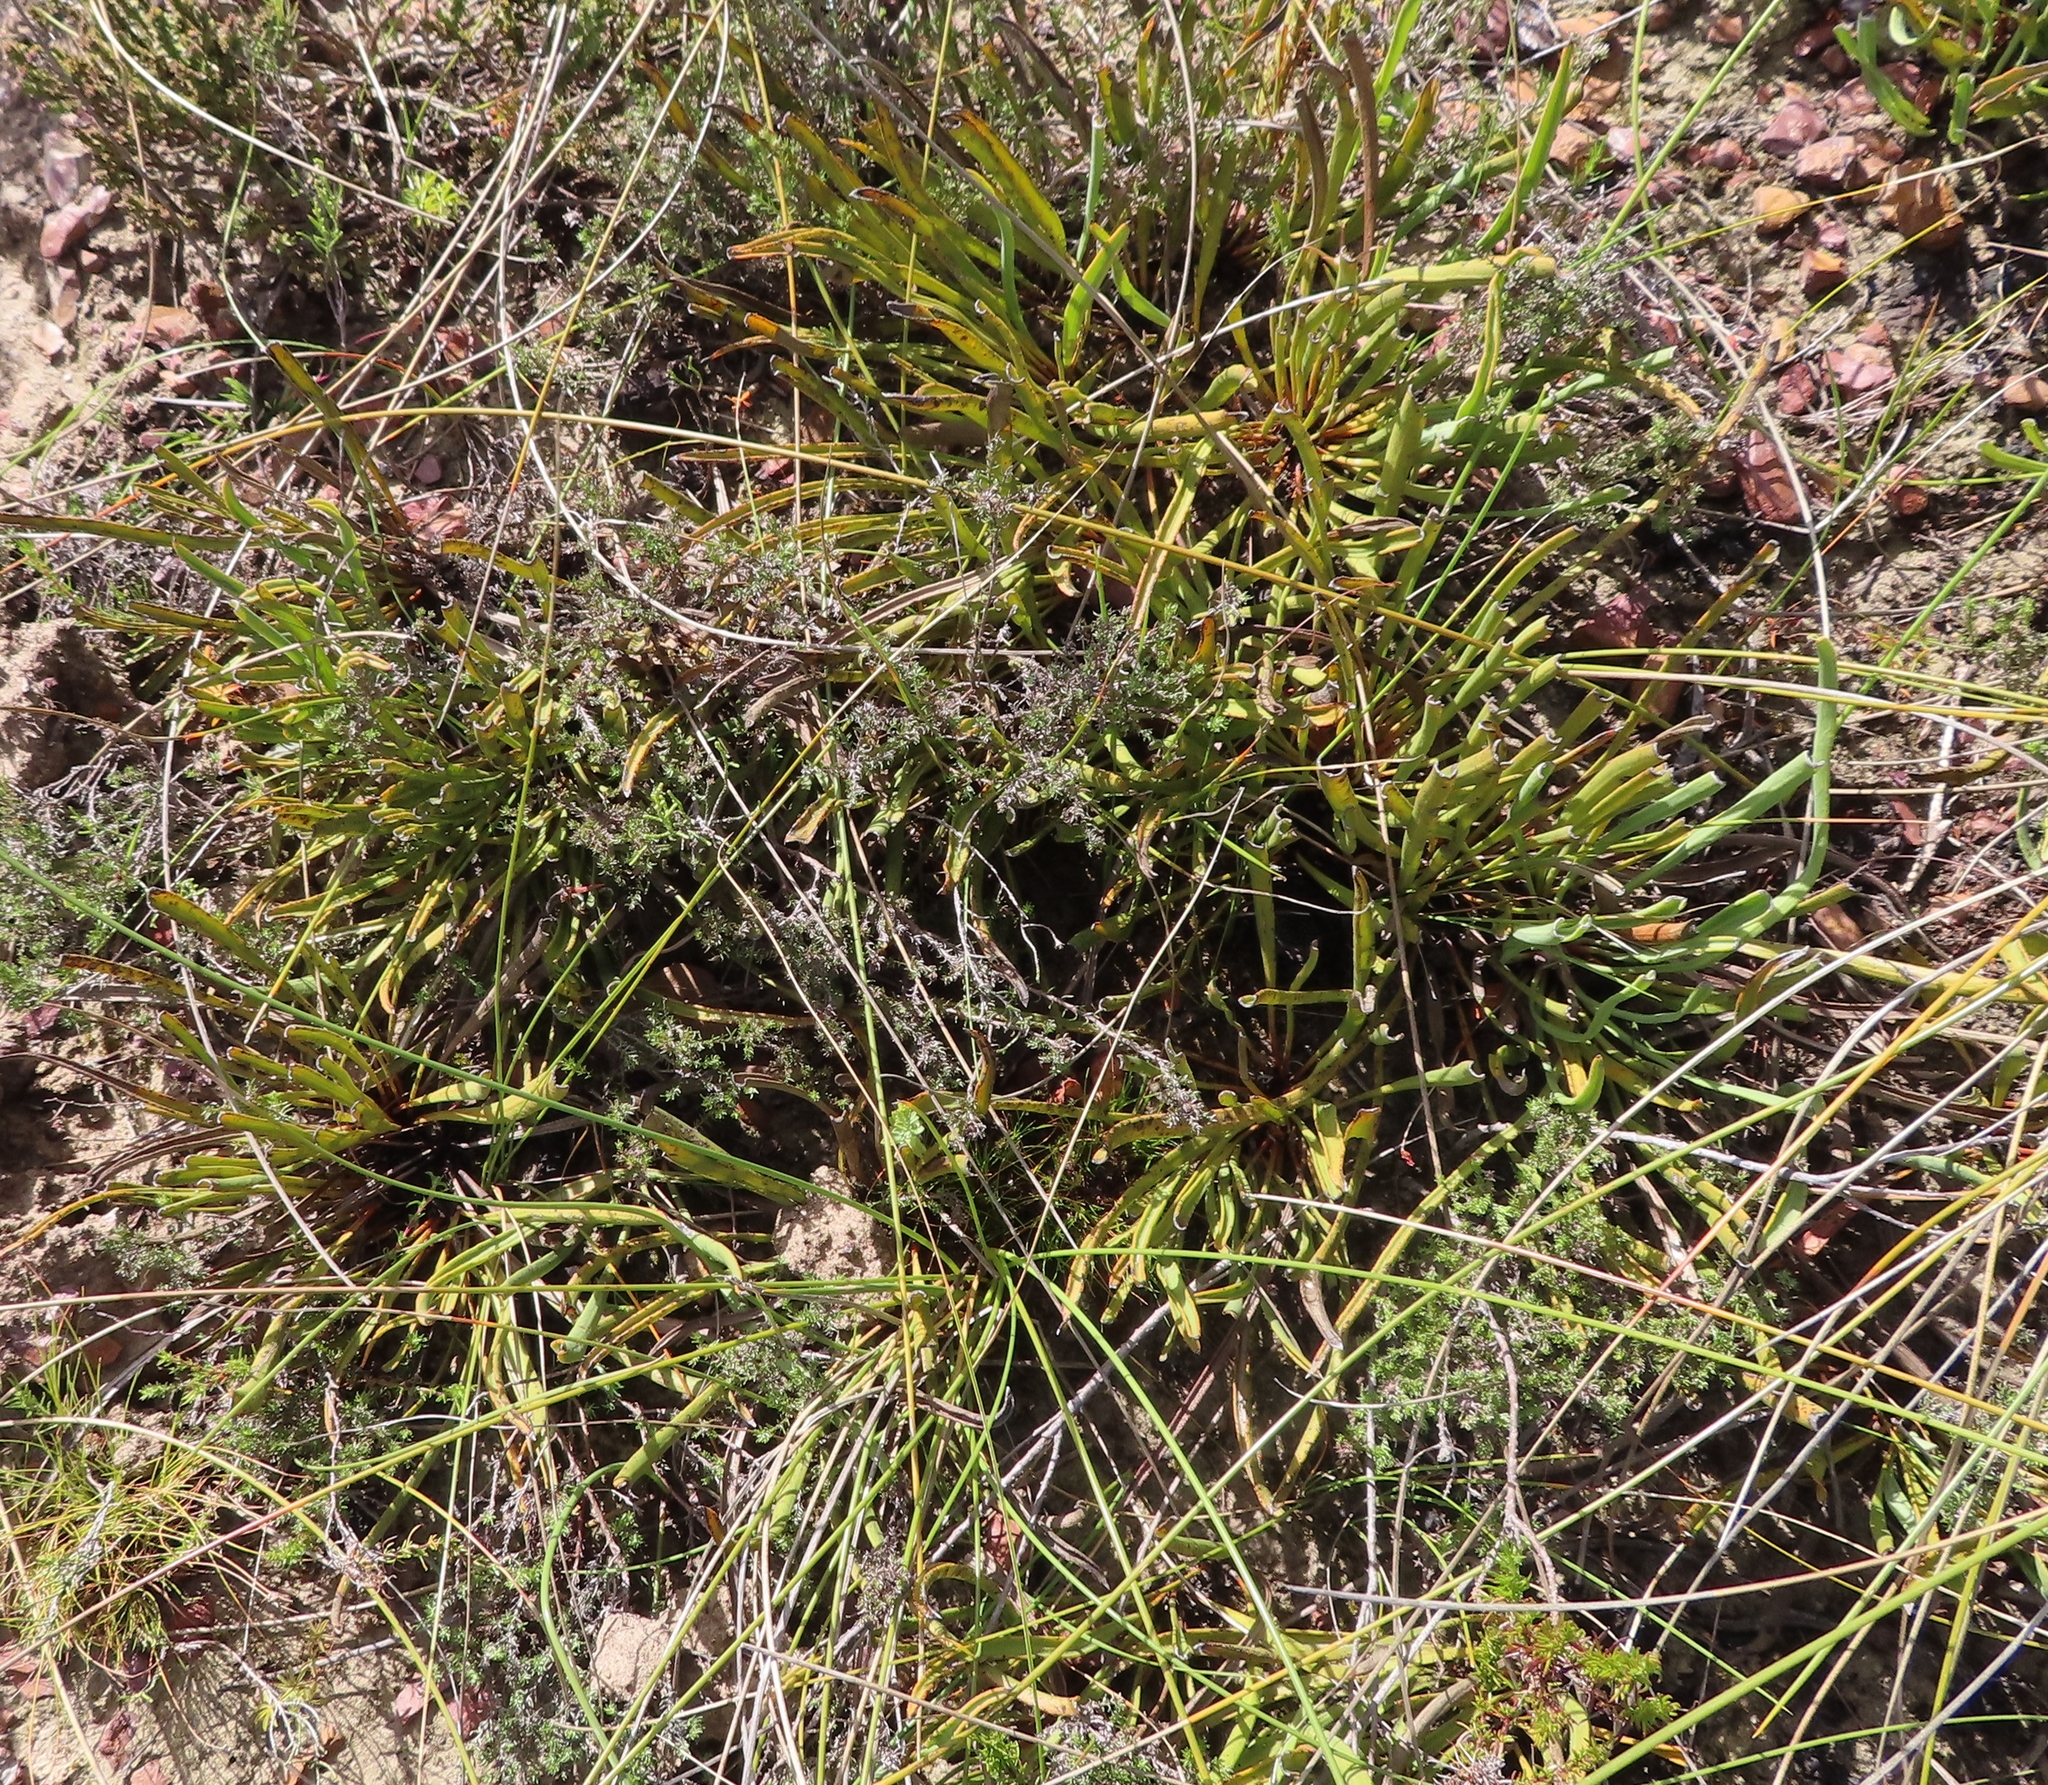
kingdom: Plantae
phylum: Tracheophyta
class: Magnoliopsida
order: Proteales
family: Proteaceae
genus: Protea
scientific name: Protea scabra
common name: Sandpaper-leaf sugarbush
